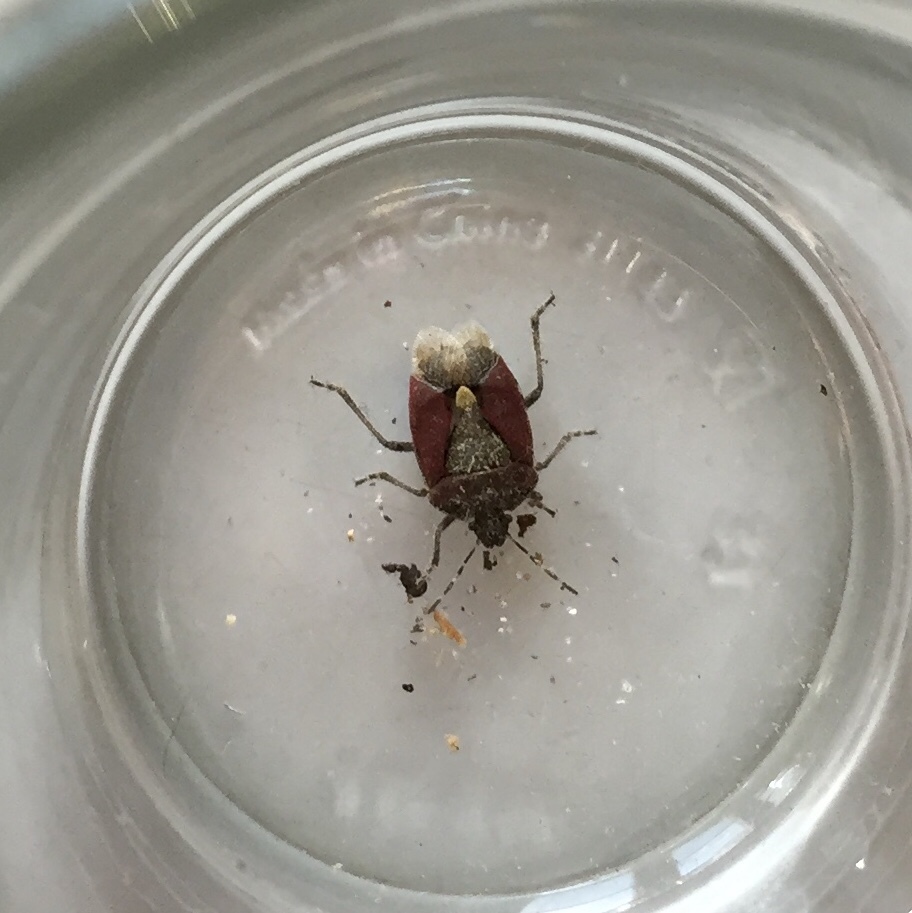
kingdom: Animalia
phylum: Arthropoda
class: Insecta
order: Hemiptera
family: Pentatomidae
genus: Dolycoris
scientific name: Dolycoris baccarum
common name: Sloe bug
